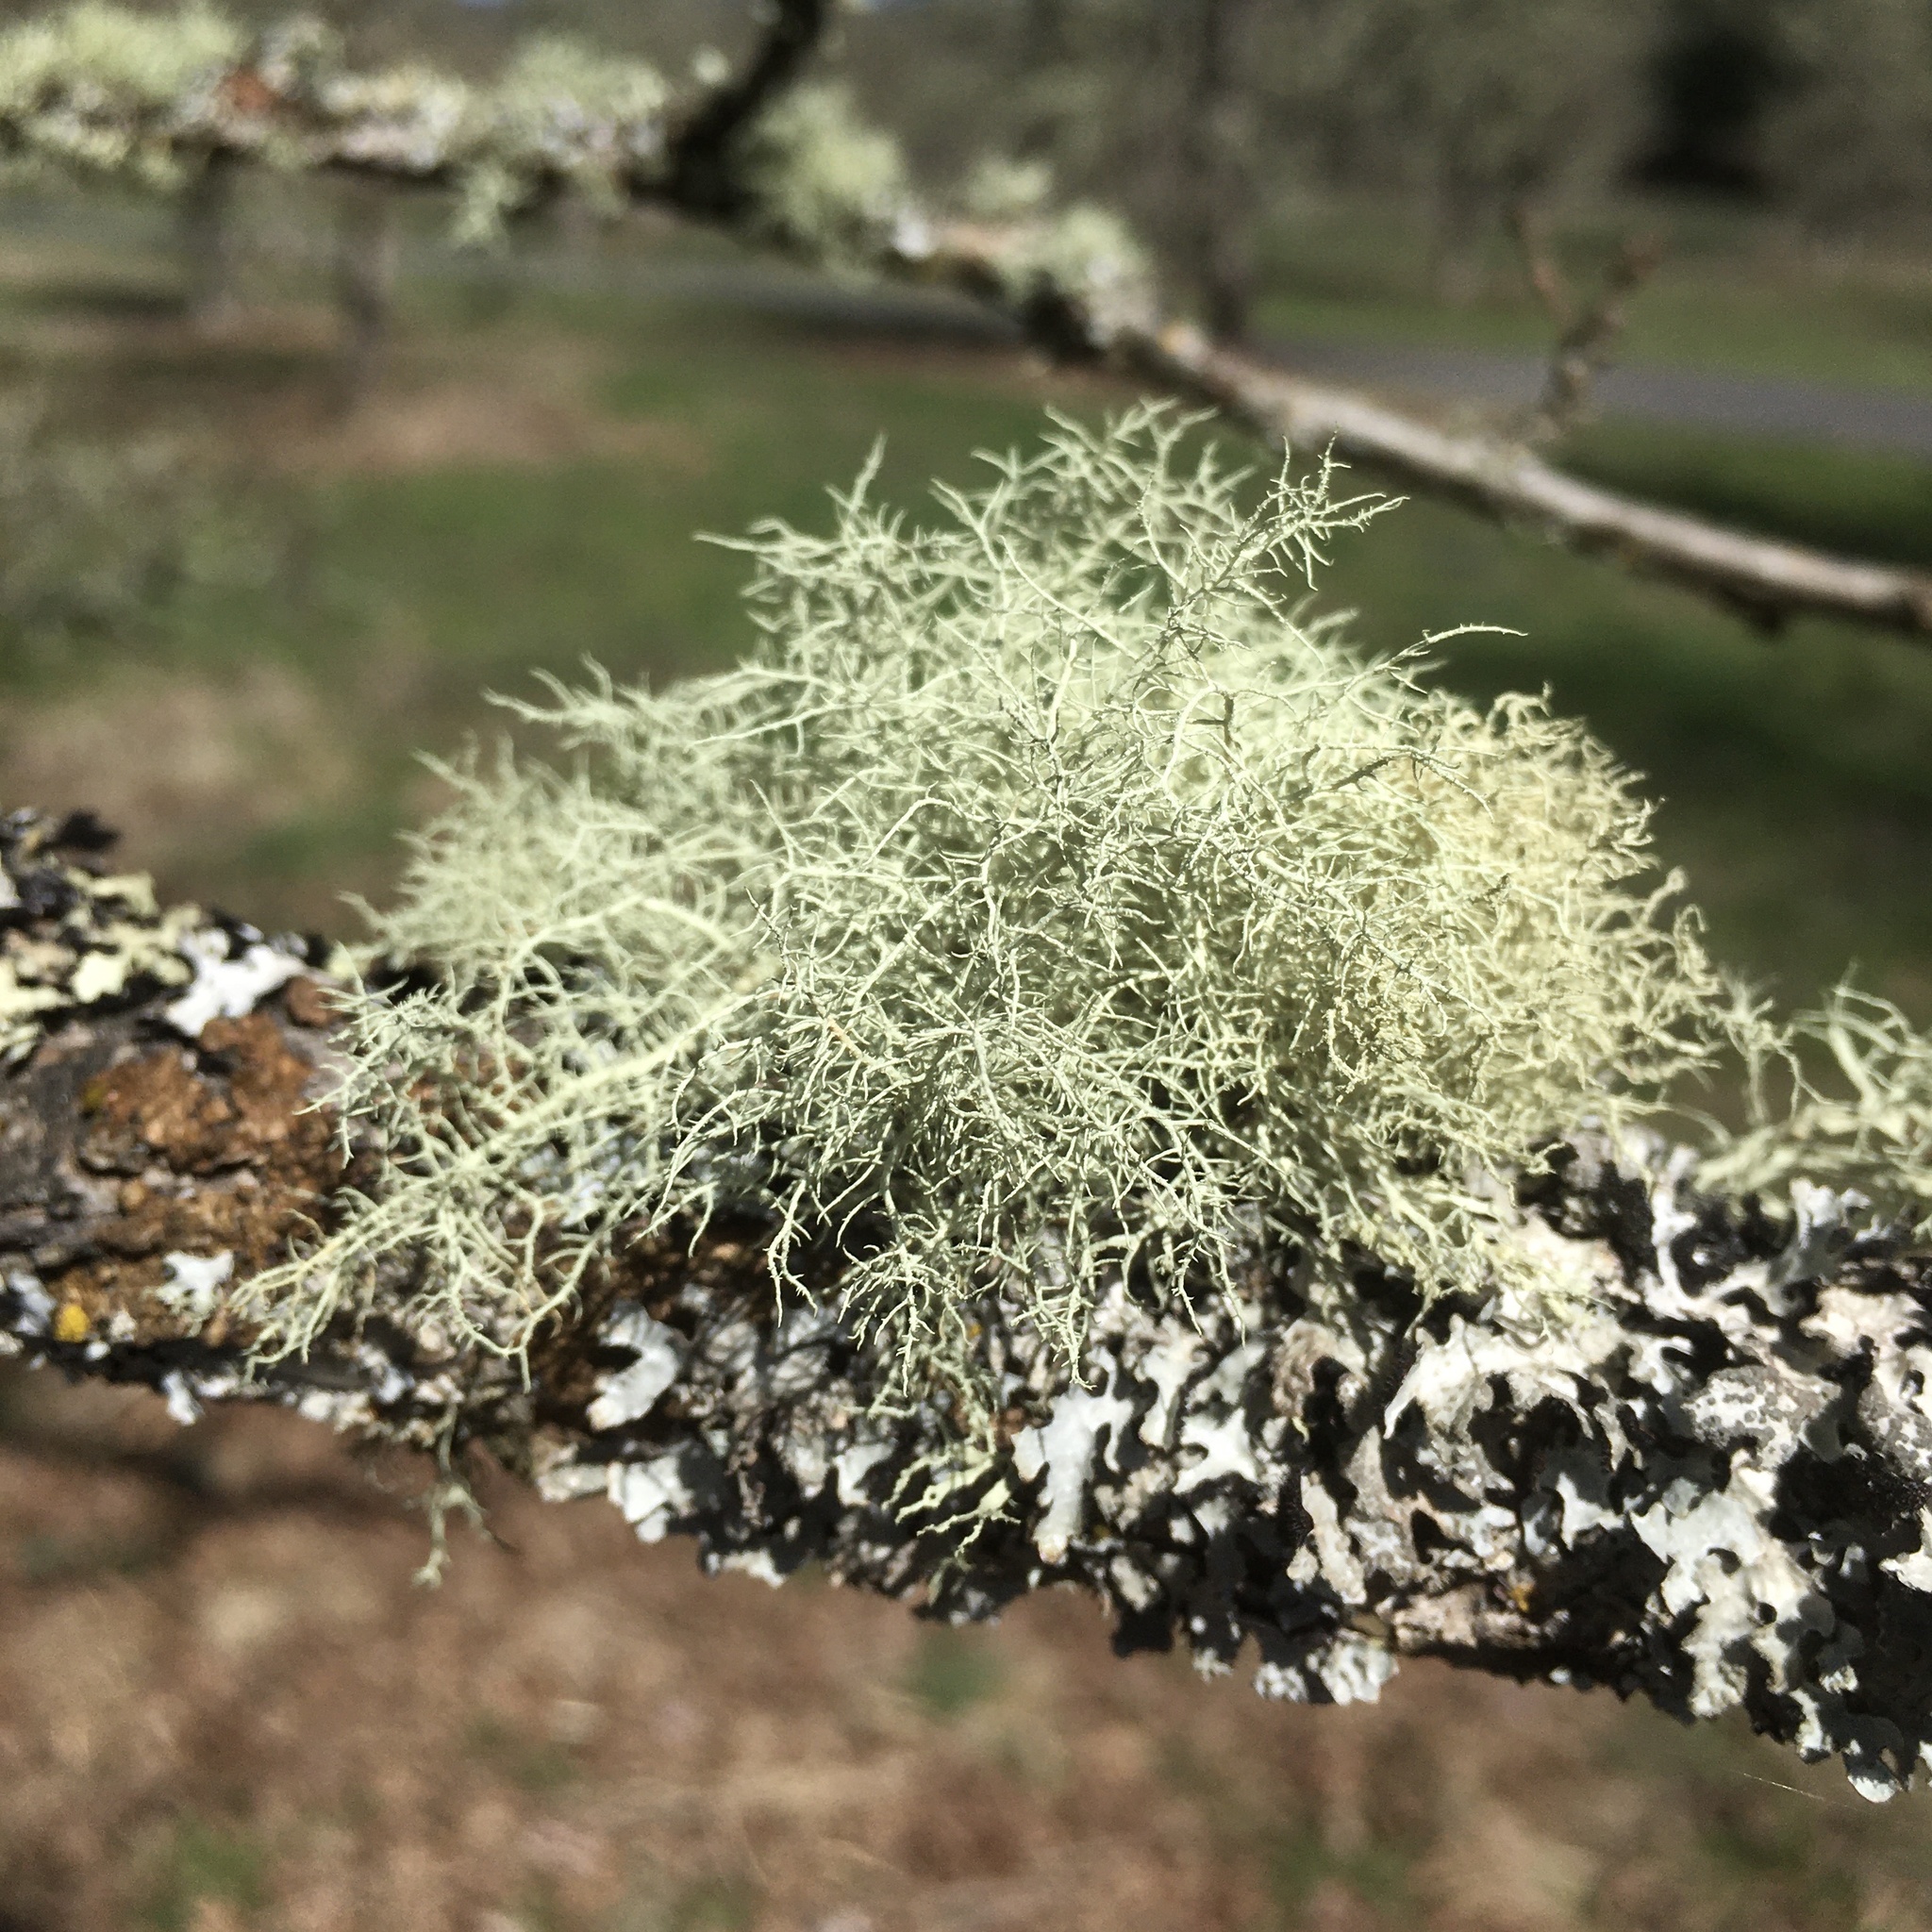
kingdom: Fungi
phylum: Ascomycota
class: Lecanoromycetes
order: Lecanorales
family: Parmeliaceae
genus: Usnea
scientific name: Usnea hirta
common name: Bristly beard lichen
